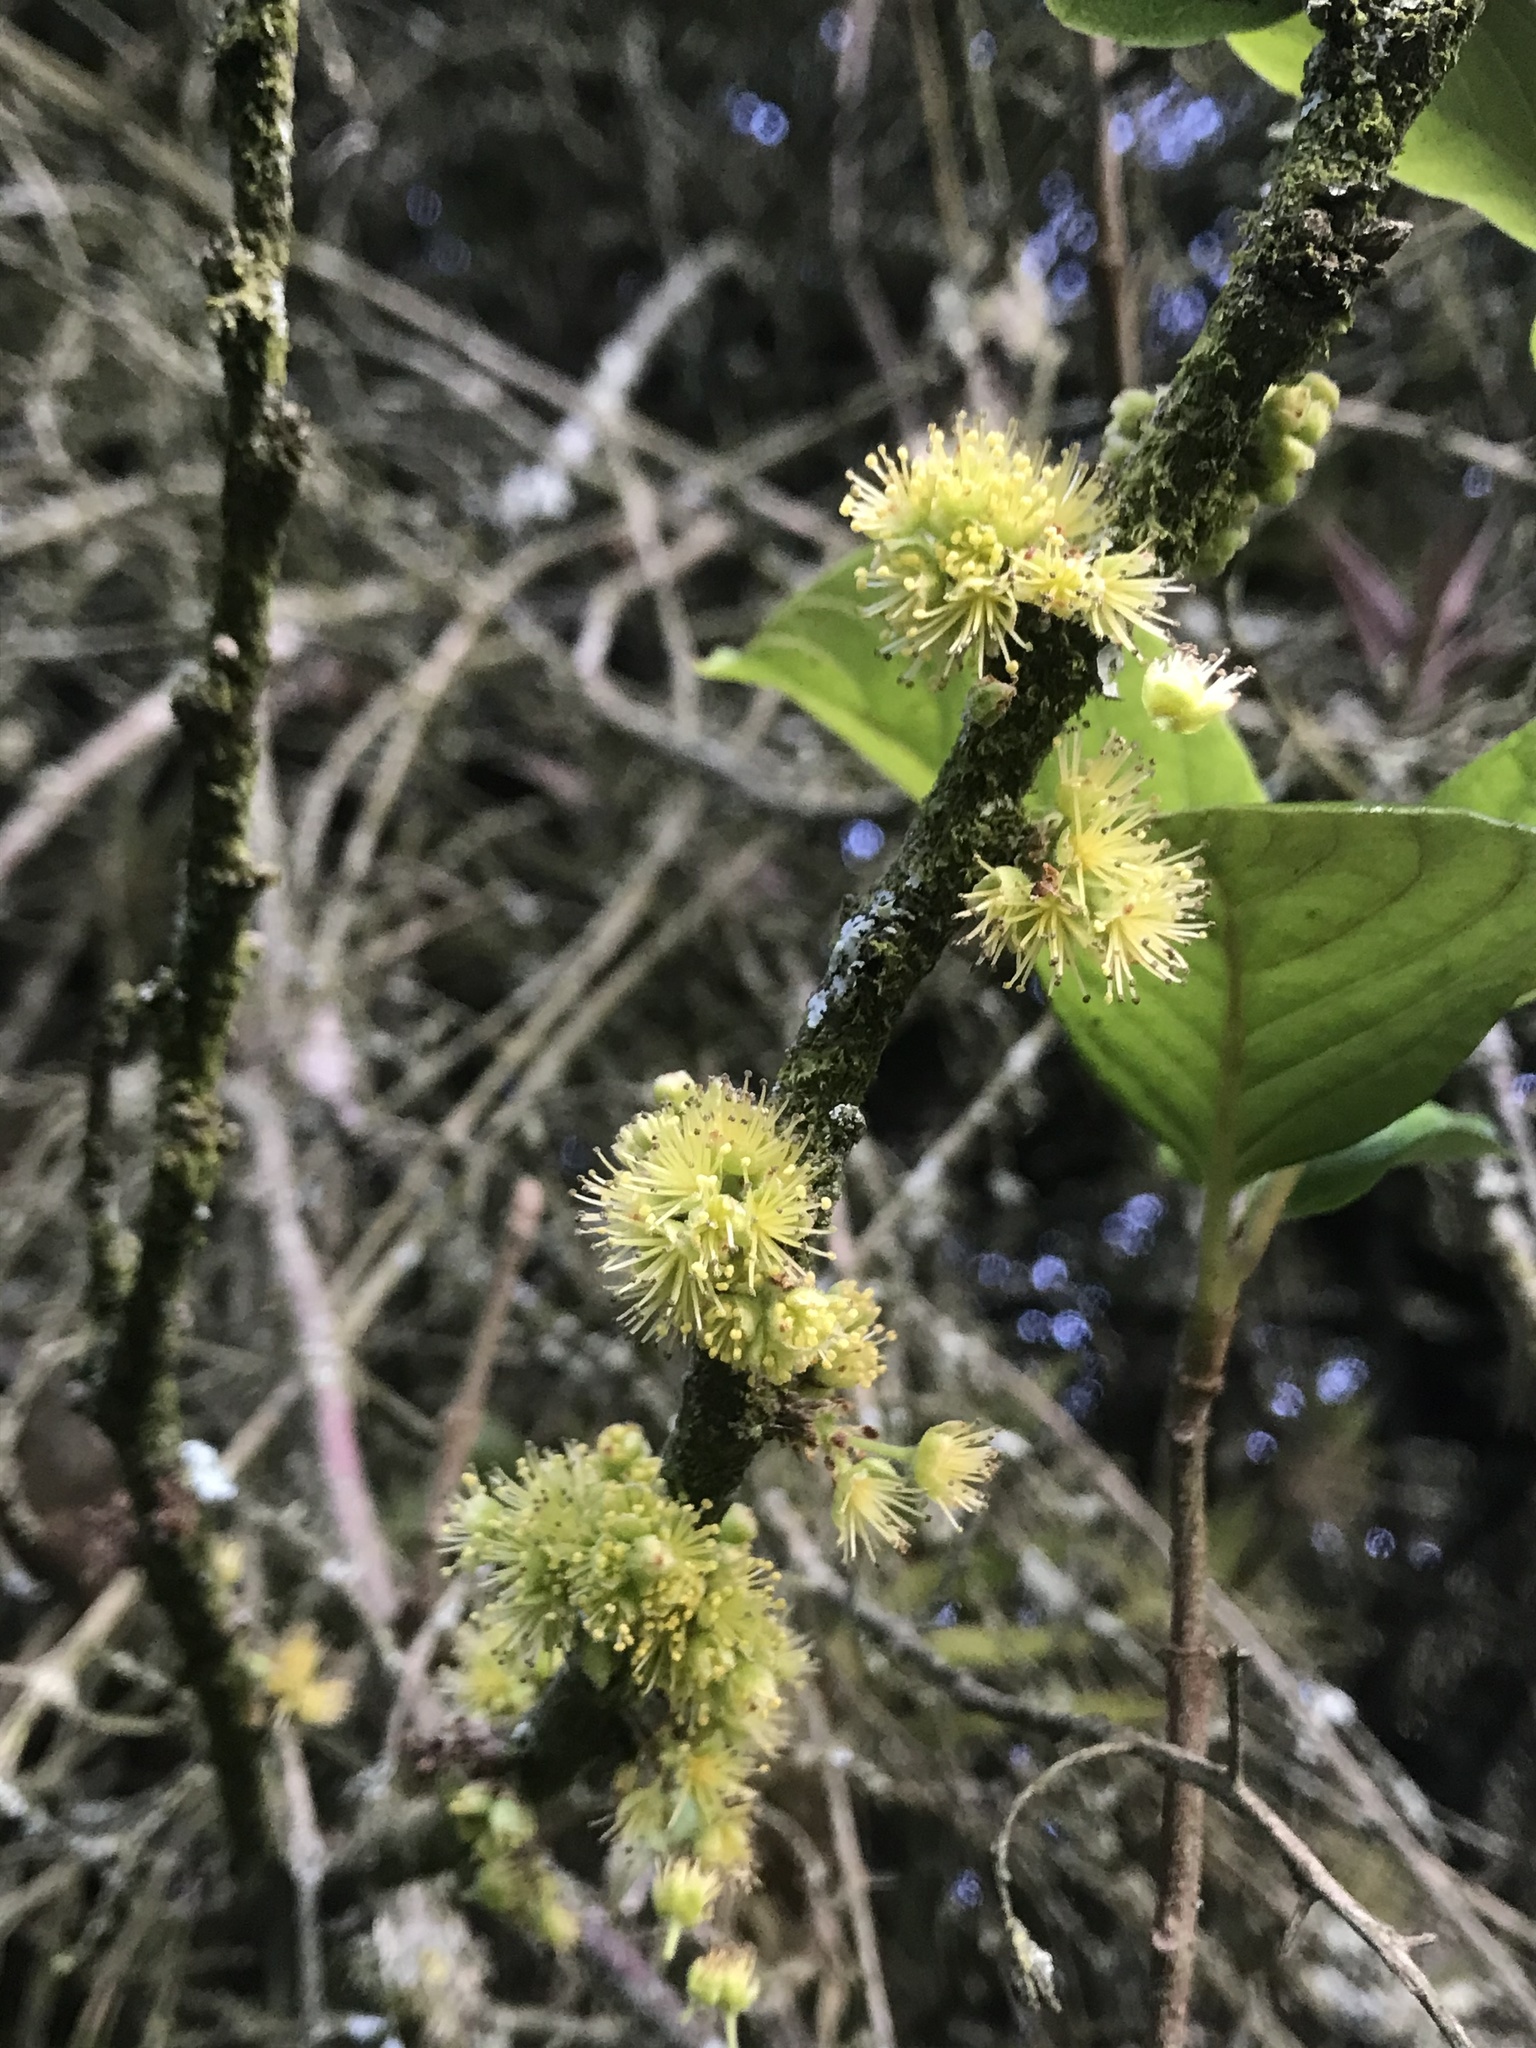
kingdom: Plantae
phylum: Tracheophyta
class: Magnoliopsida
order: Malpighiales
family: Salicaceae
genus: Xylosma
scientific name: Xylosma spiculifera
